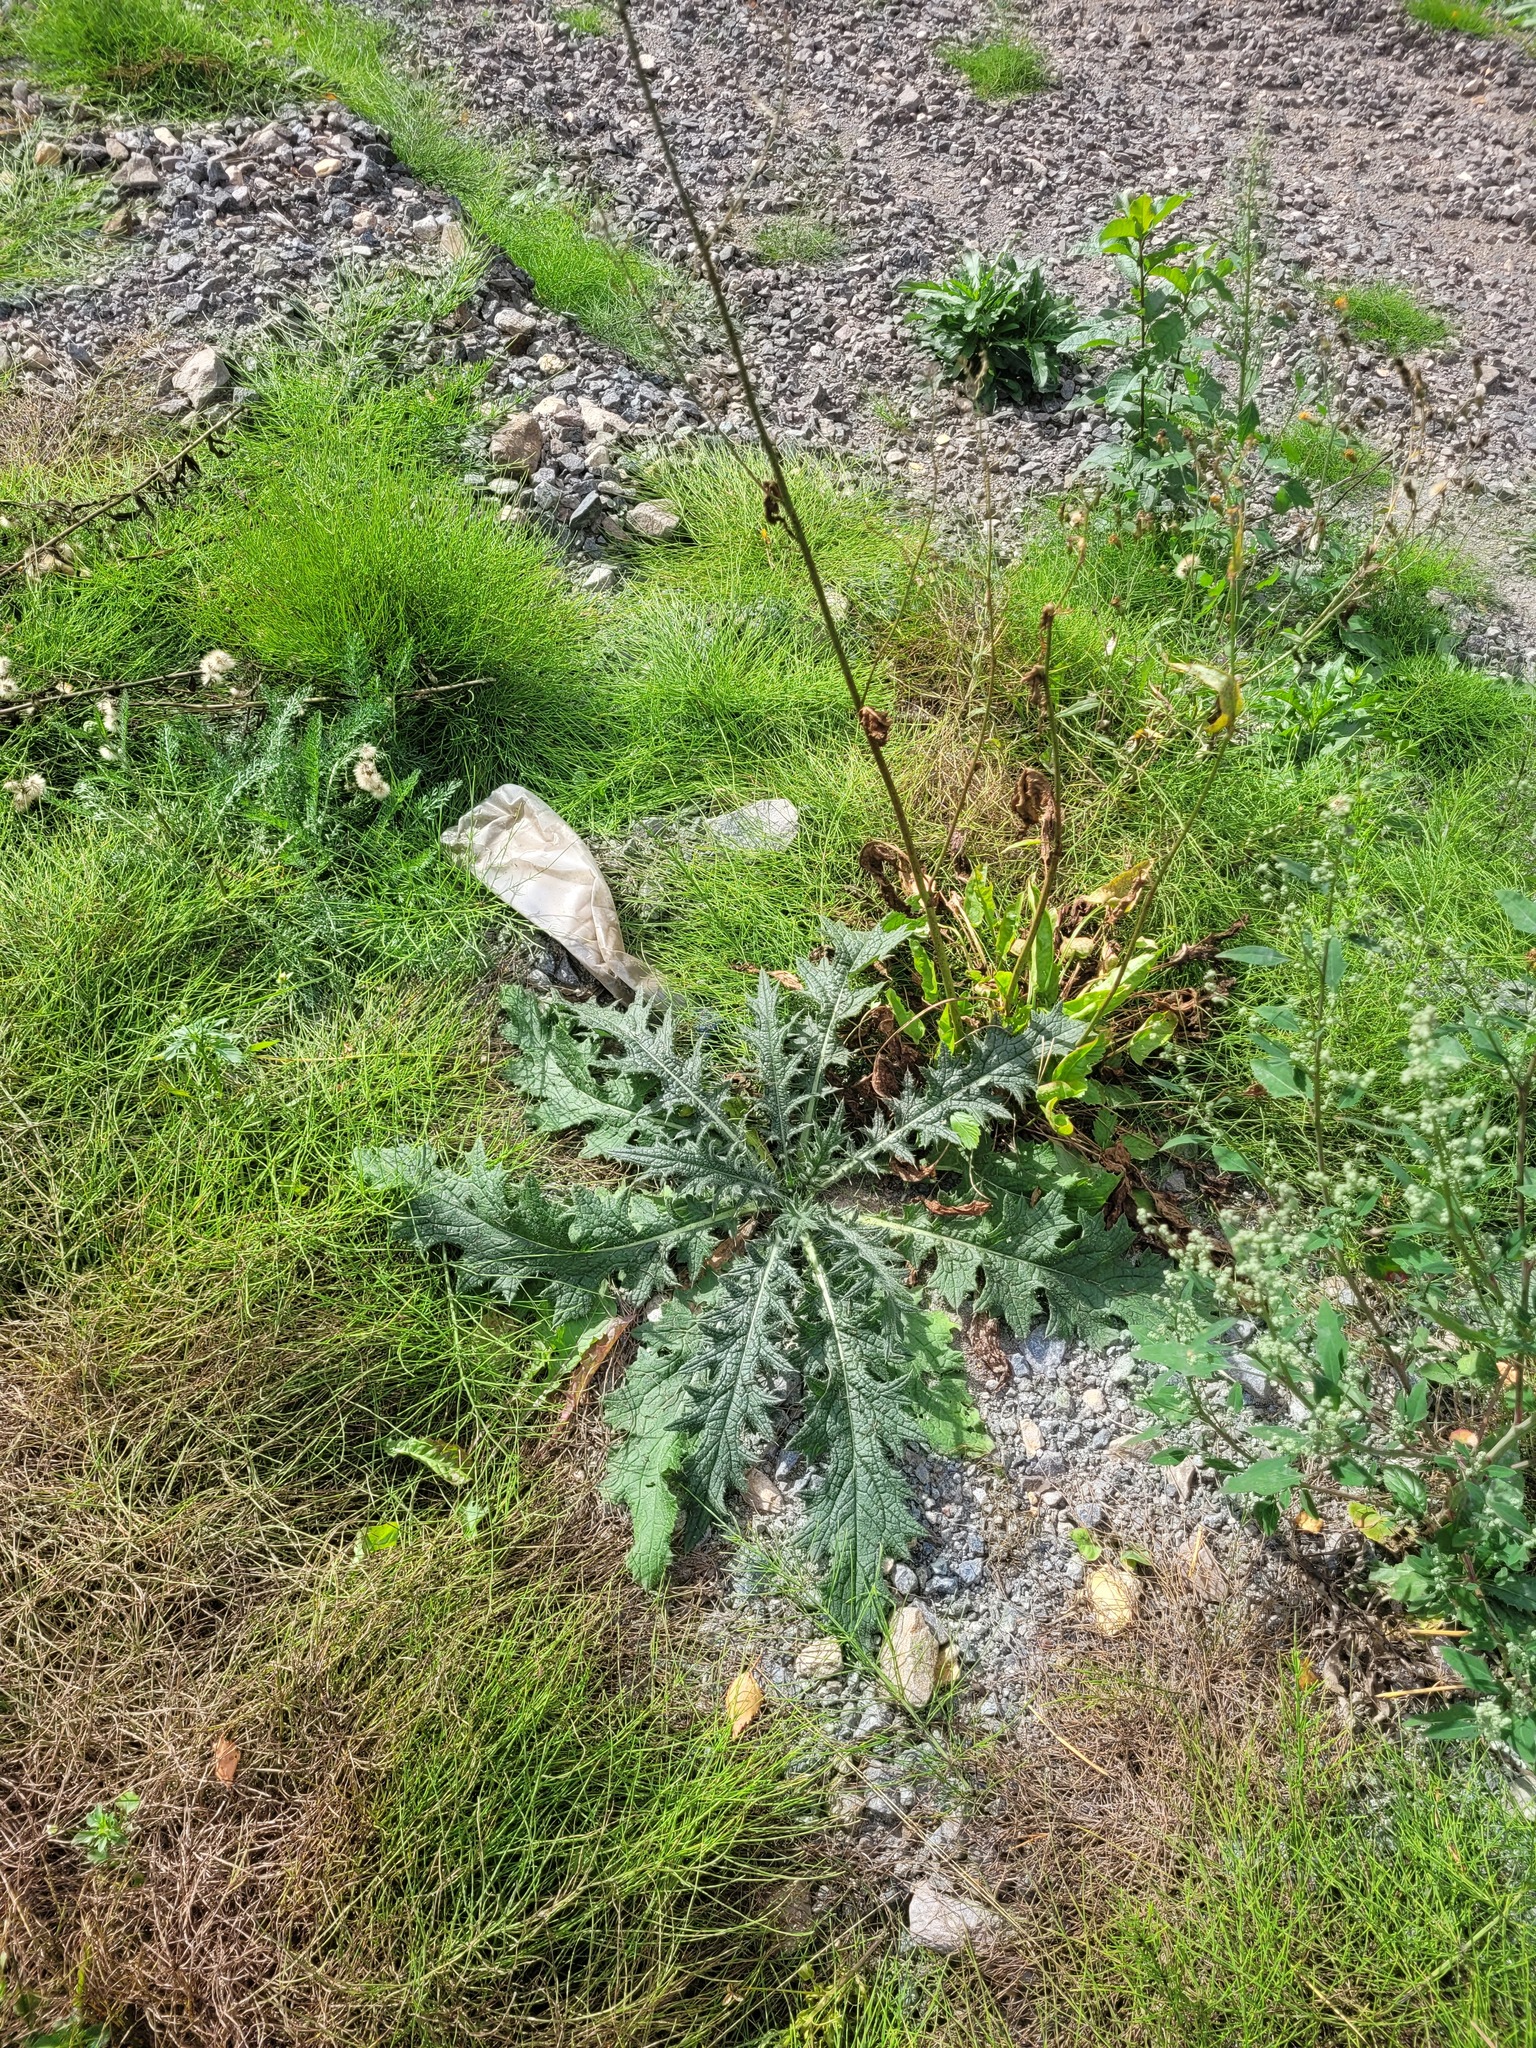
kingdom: Plantae
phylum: Tracheophyta
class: Magnoliopsida
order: Asterales
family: Asteraceae
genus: Cirsium
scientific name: Cirsium vulgare
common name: Bull thistle
